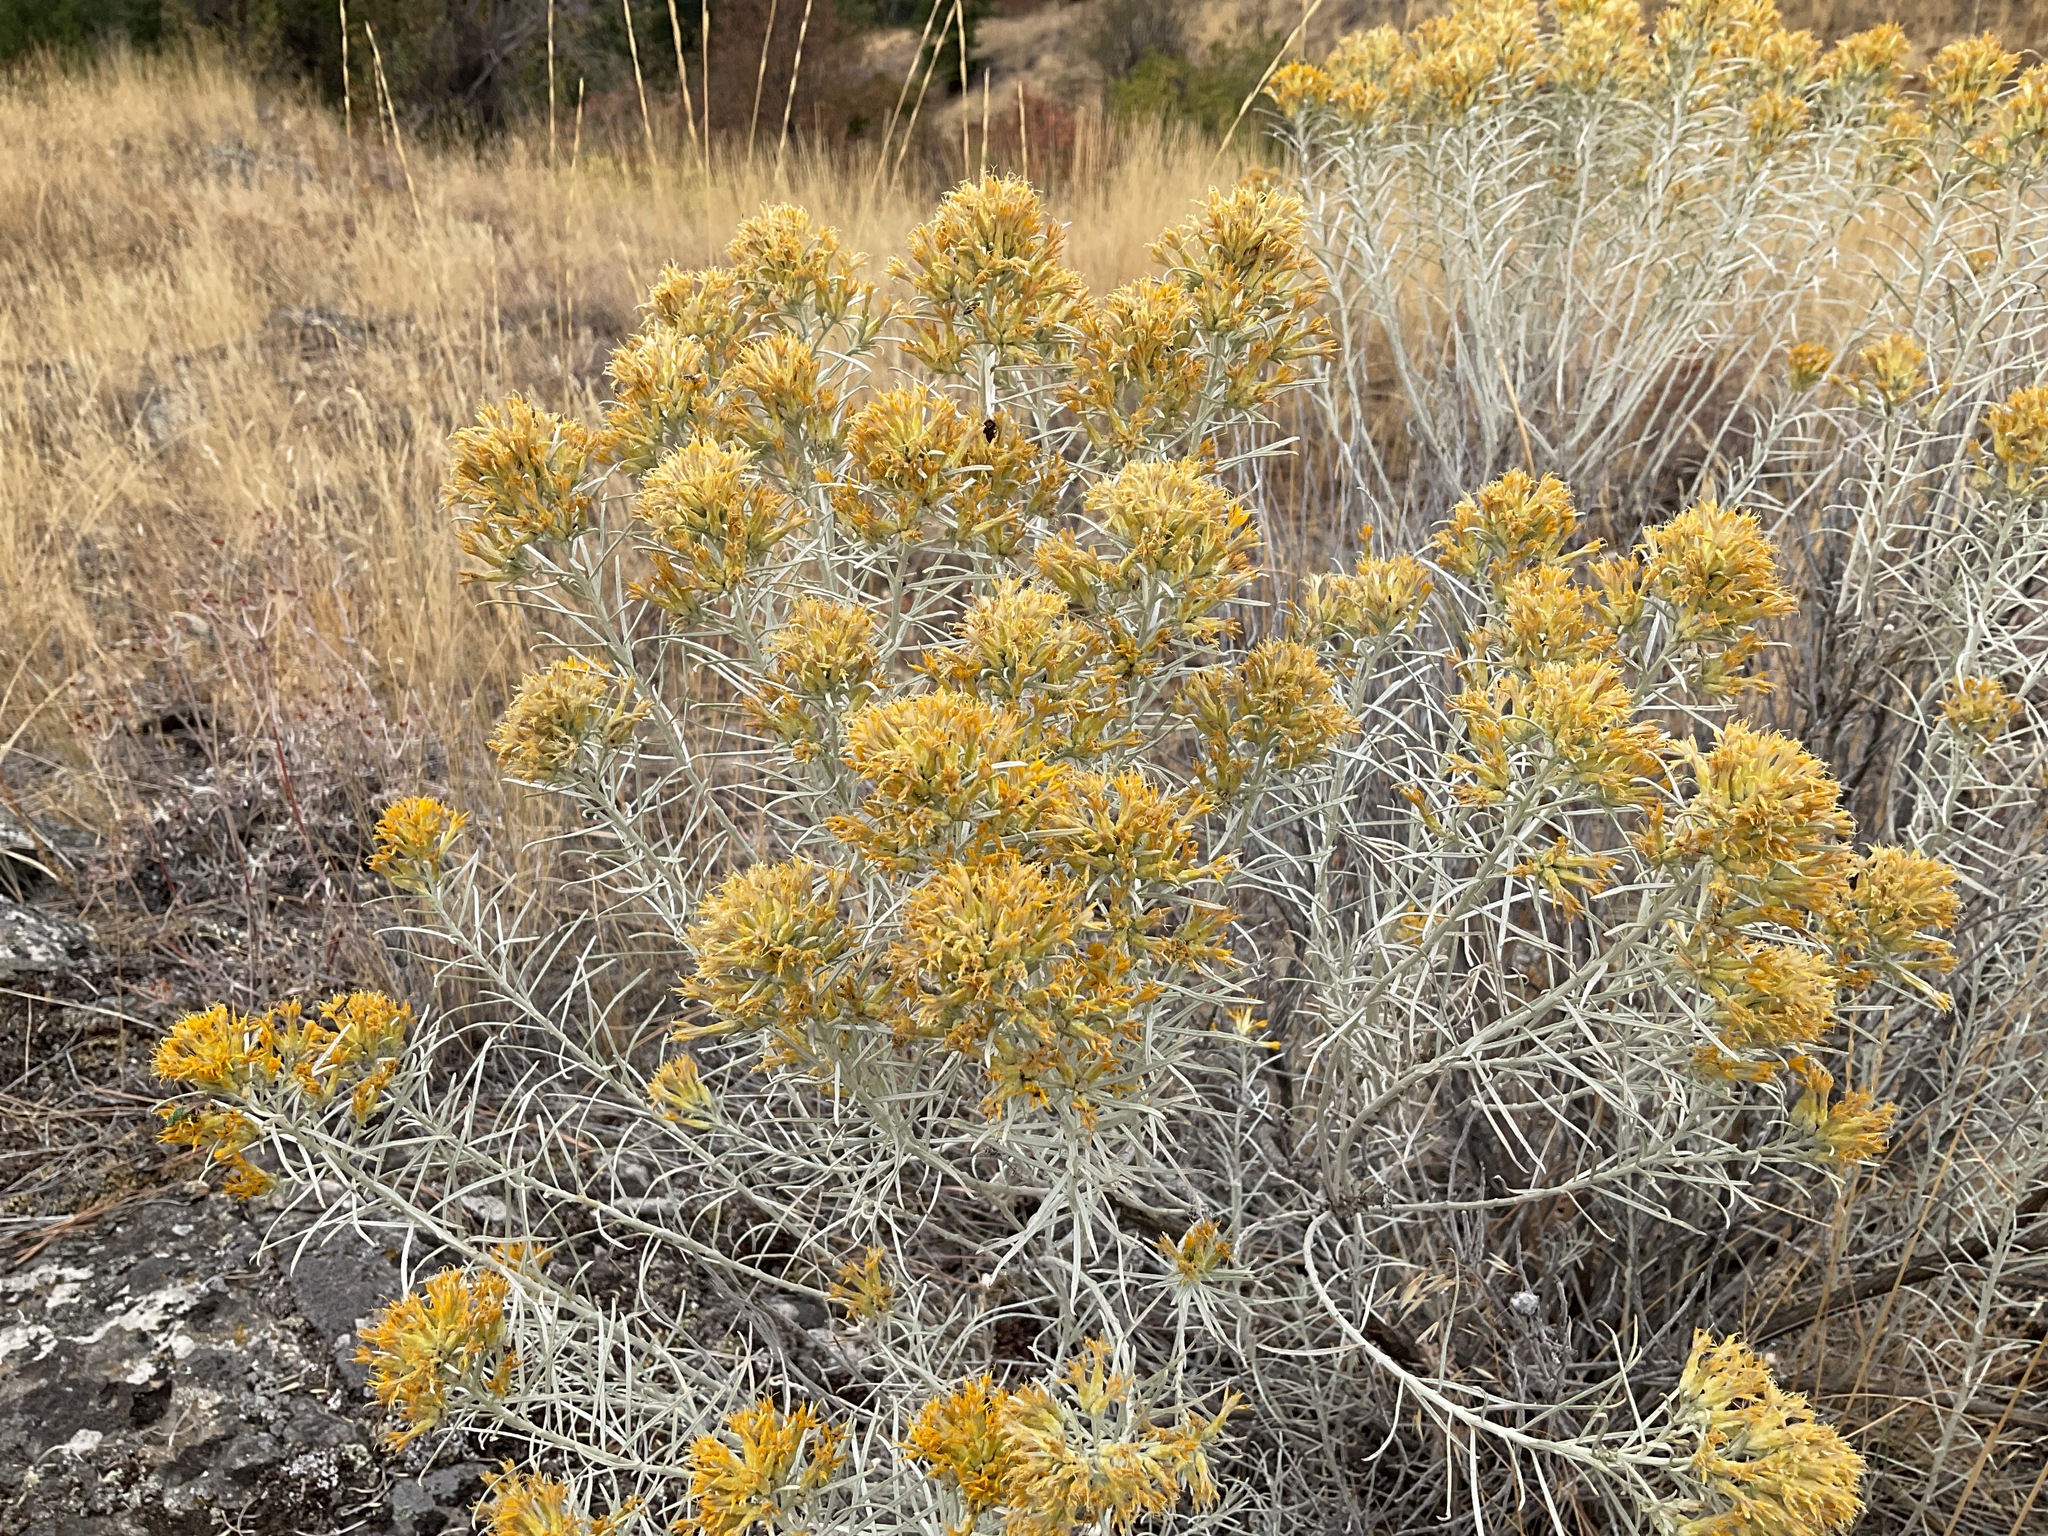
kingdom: Plantae
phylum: Tracheophyta
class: Magnoliopsida
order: Asterales
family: Asteraceae
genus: Ericameria
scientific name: Ericameria nauseosa
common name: Rubber rabbitbrush
